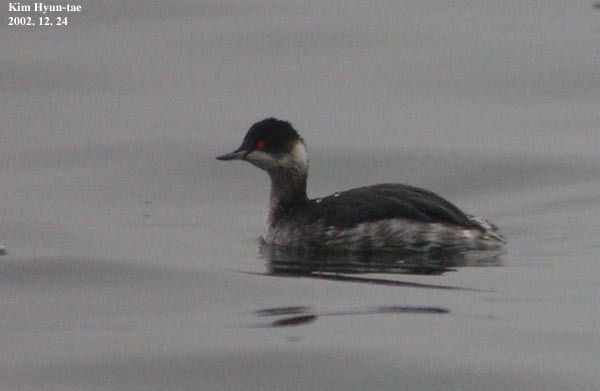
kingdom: Animalia
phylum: Chordata
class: Aves
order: Podicipediformes
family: Podicipedidae
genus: Podiceps
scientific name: Podiceps nigricollis
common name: Black-necked grebe
